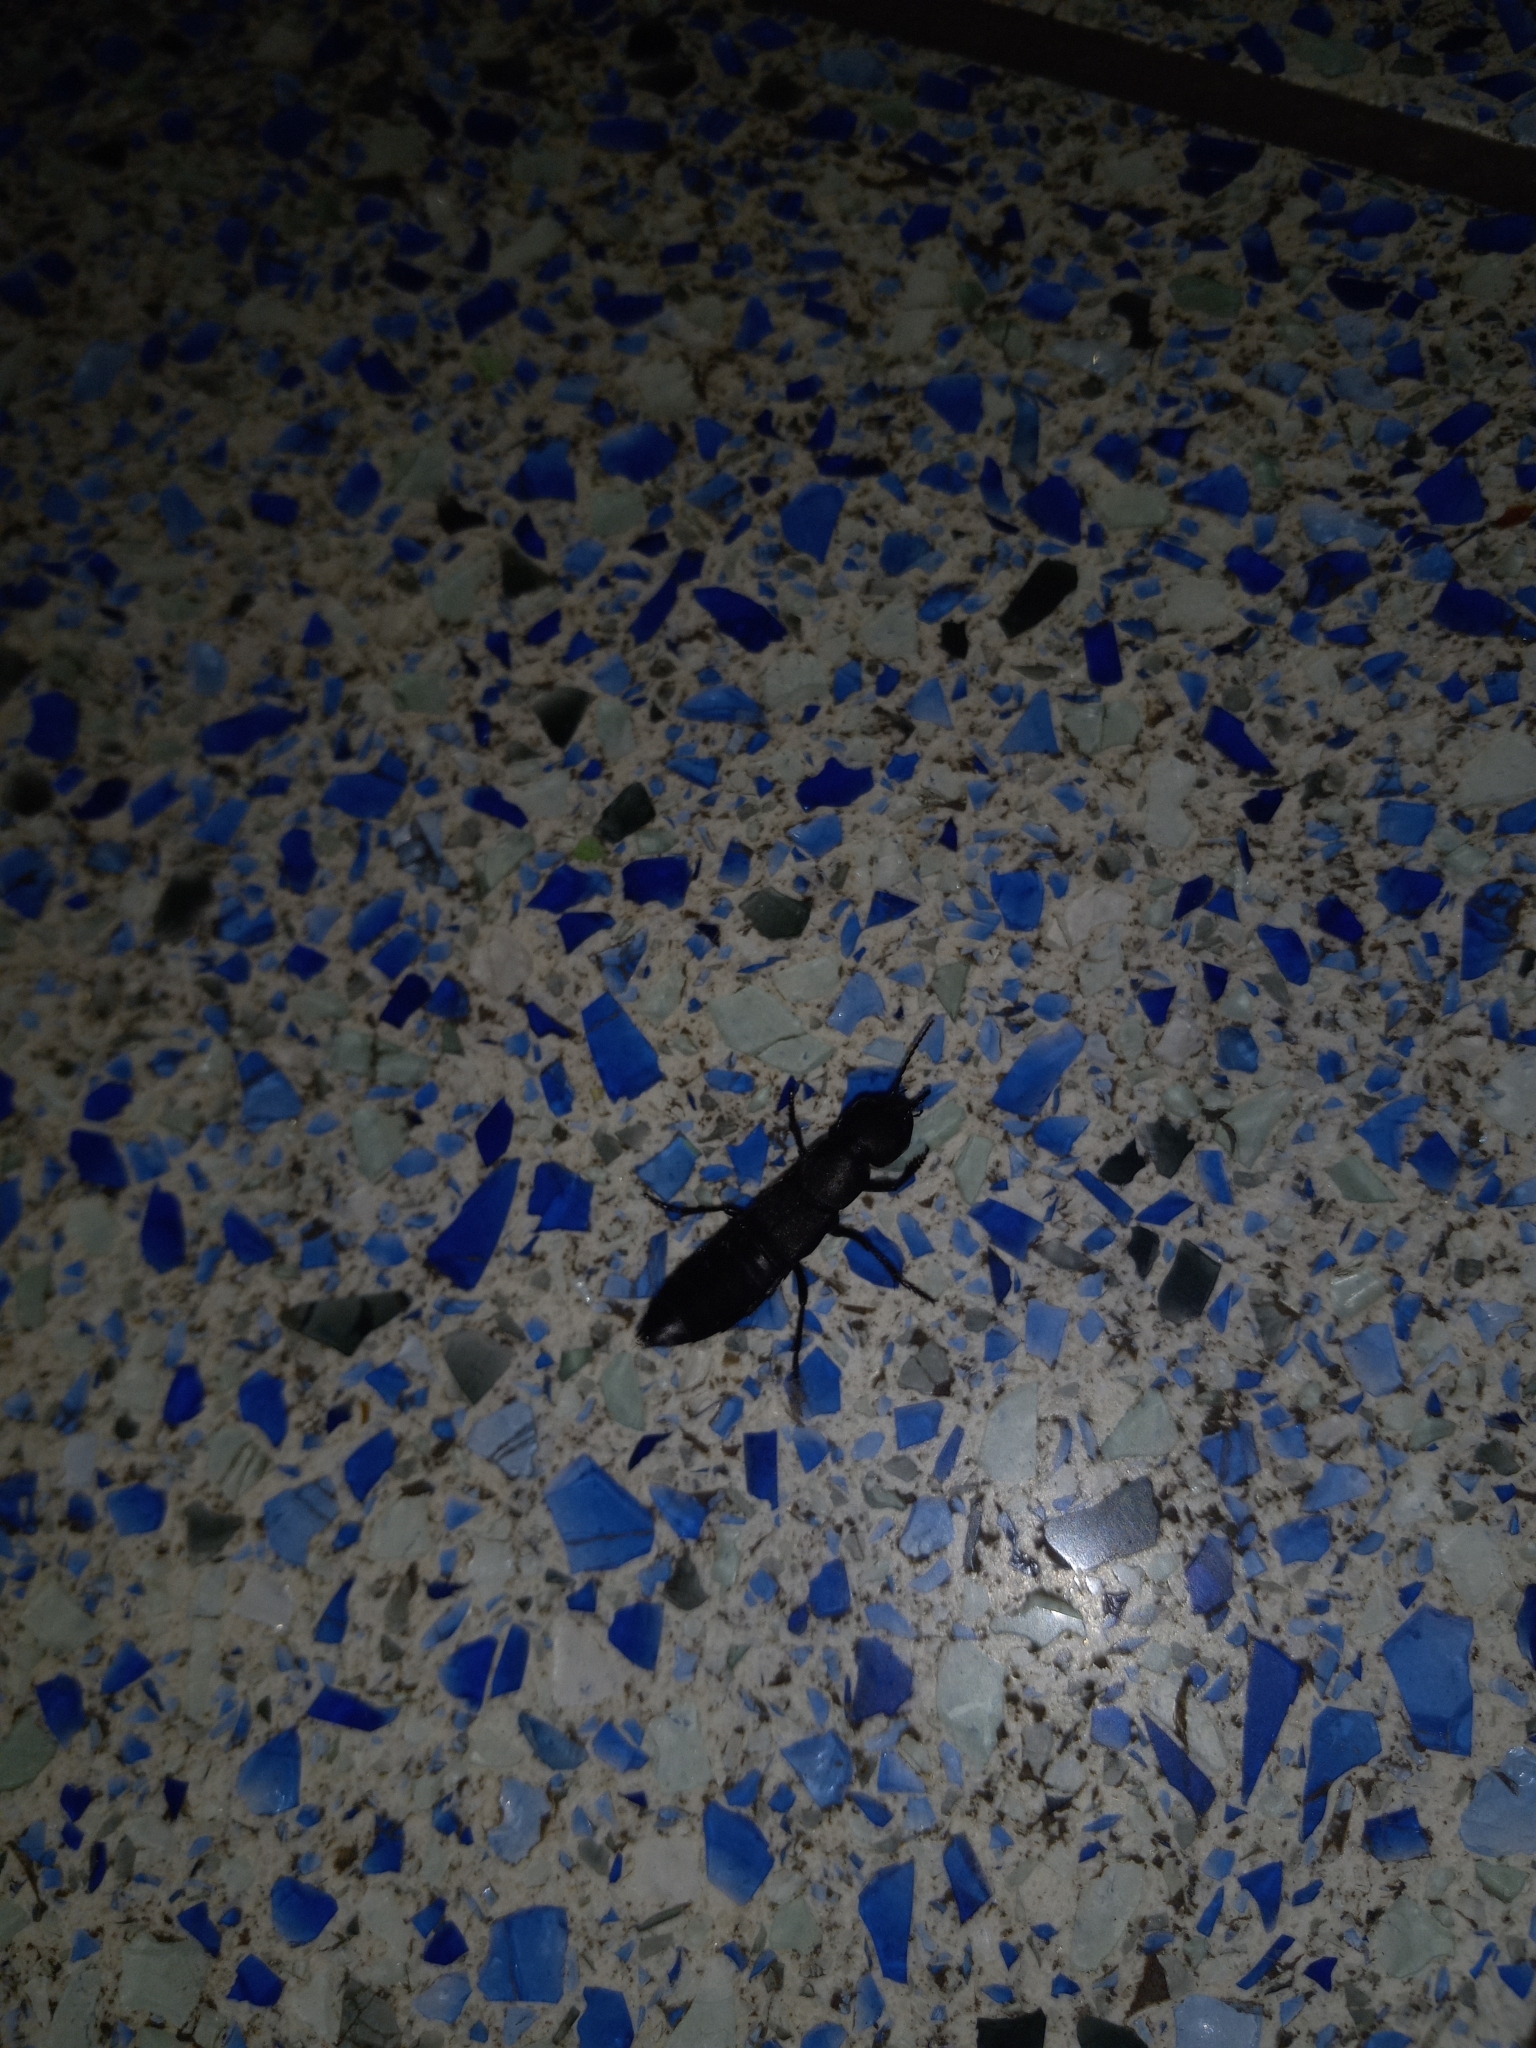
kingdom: Animalia
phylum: Arthropoda
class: Insecta
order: Coleoptera
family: Staphylinidae
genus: Ocypus
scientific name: Ocypus olens
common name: Devil's coach-horse
